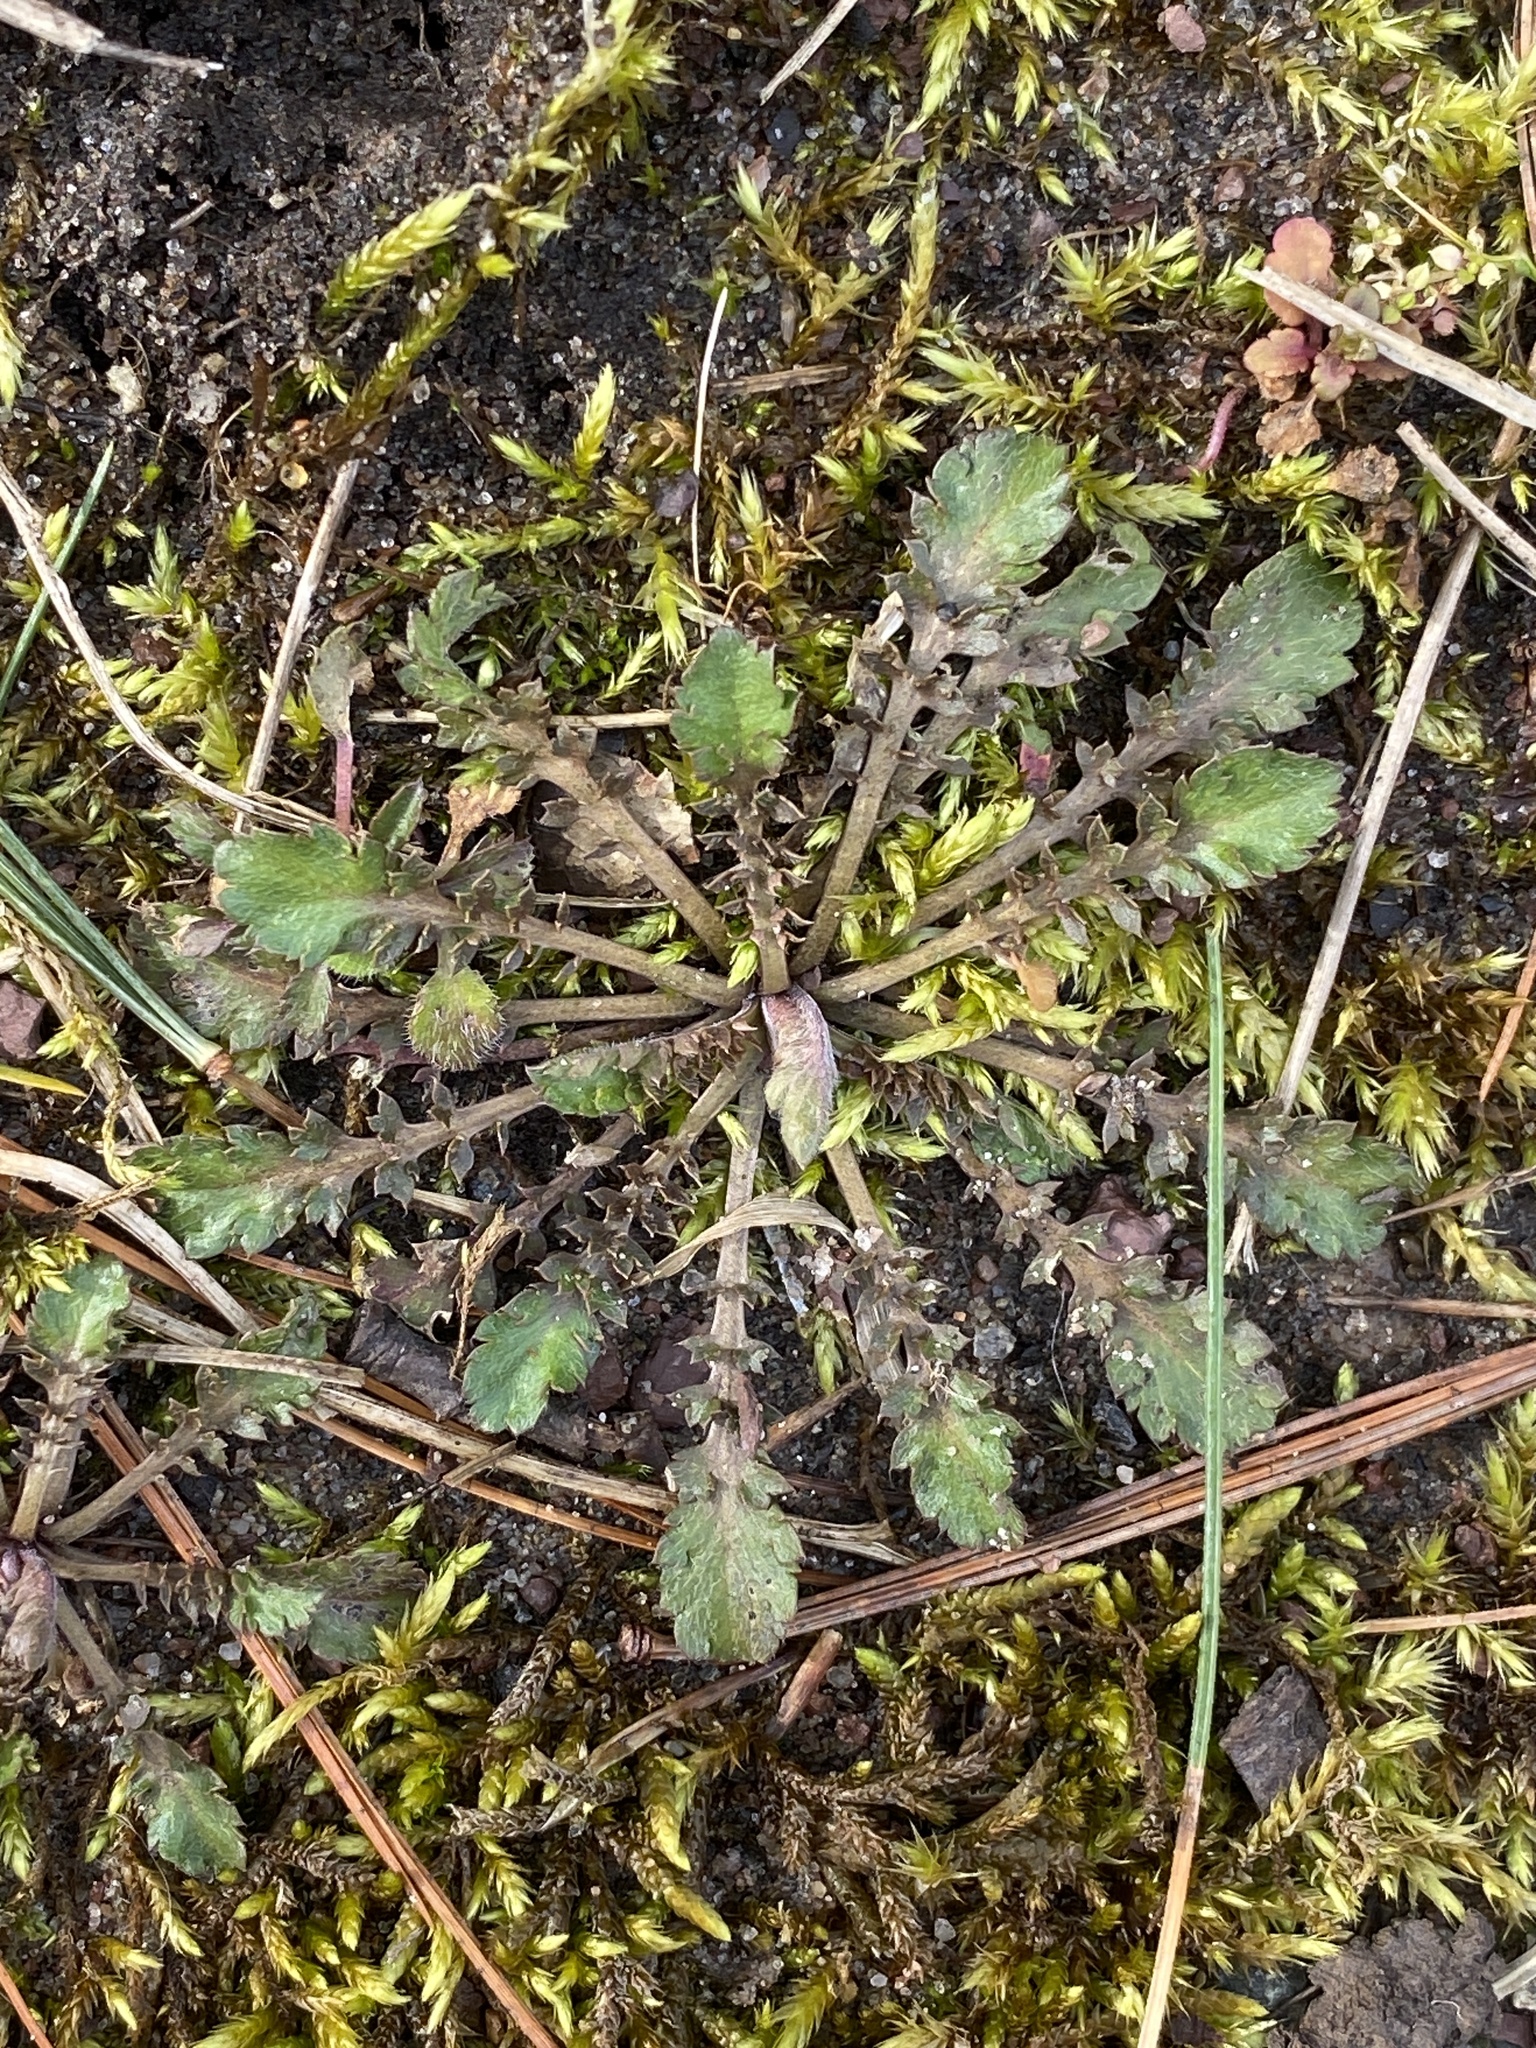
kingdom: Plantae
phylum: Tracheophyta
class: Magnoliopsida
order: Brassicales
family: Brassicaceae
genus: Lepidium
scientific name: Lepidium virginicum
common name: Least pepperwort
